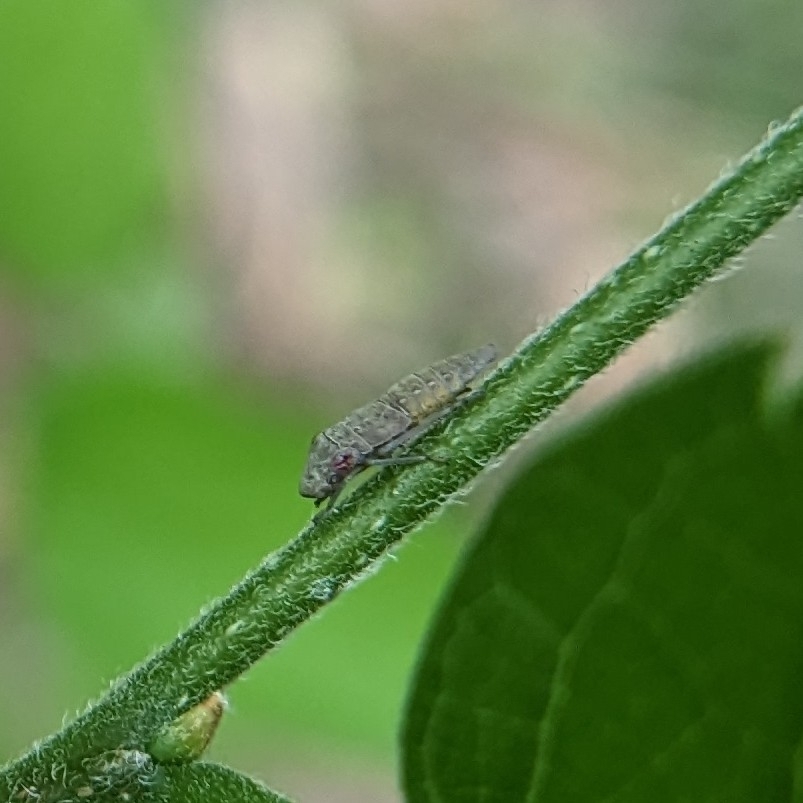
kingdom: Animalia
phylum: Arthropoda
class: Insecta
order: Hemiptera
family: Cicadellidae
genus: Homalodisca
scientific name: Homalodisca vitripennis
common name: Glassy-winged sharpshooter
